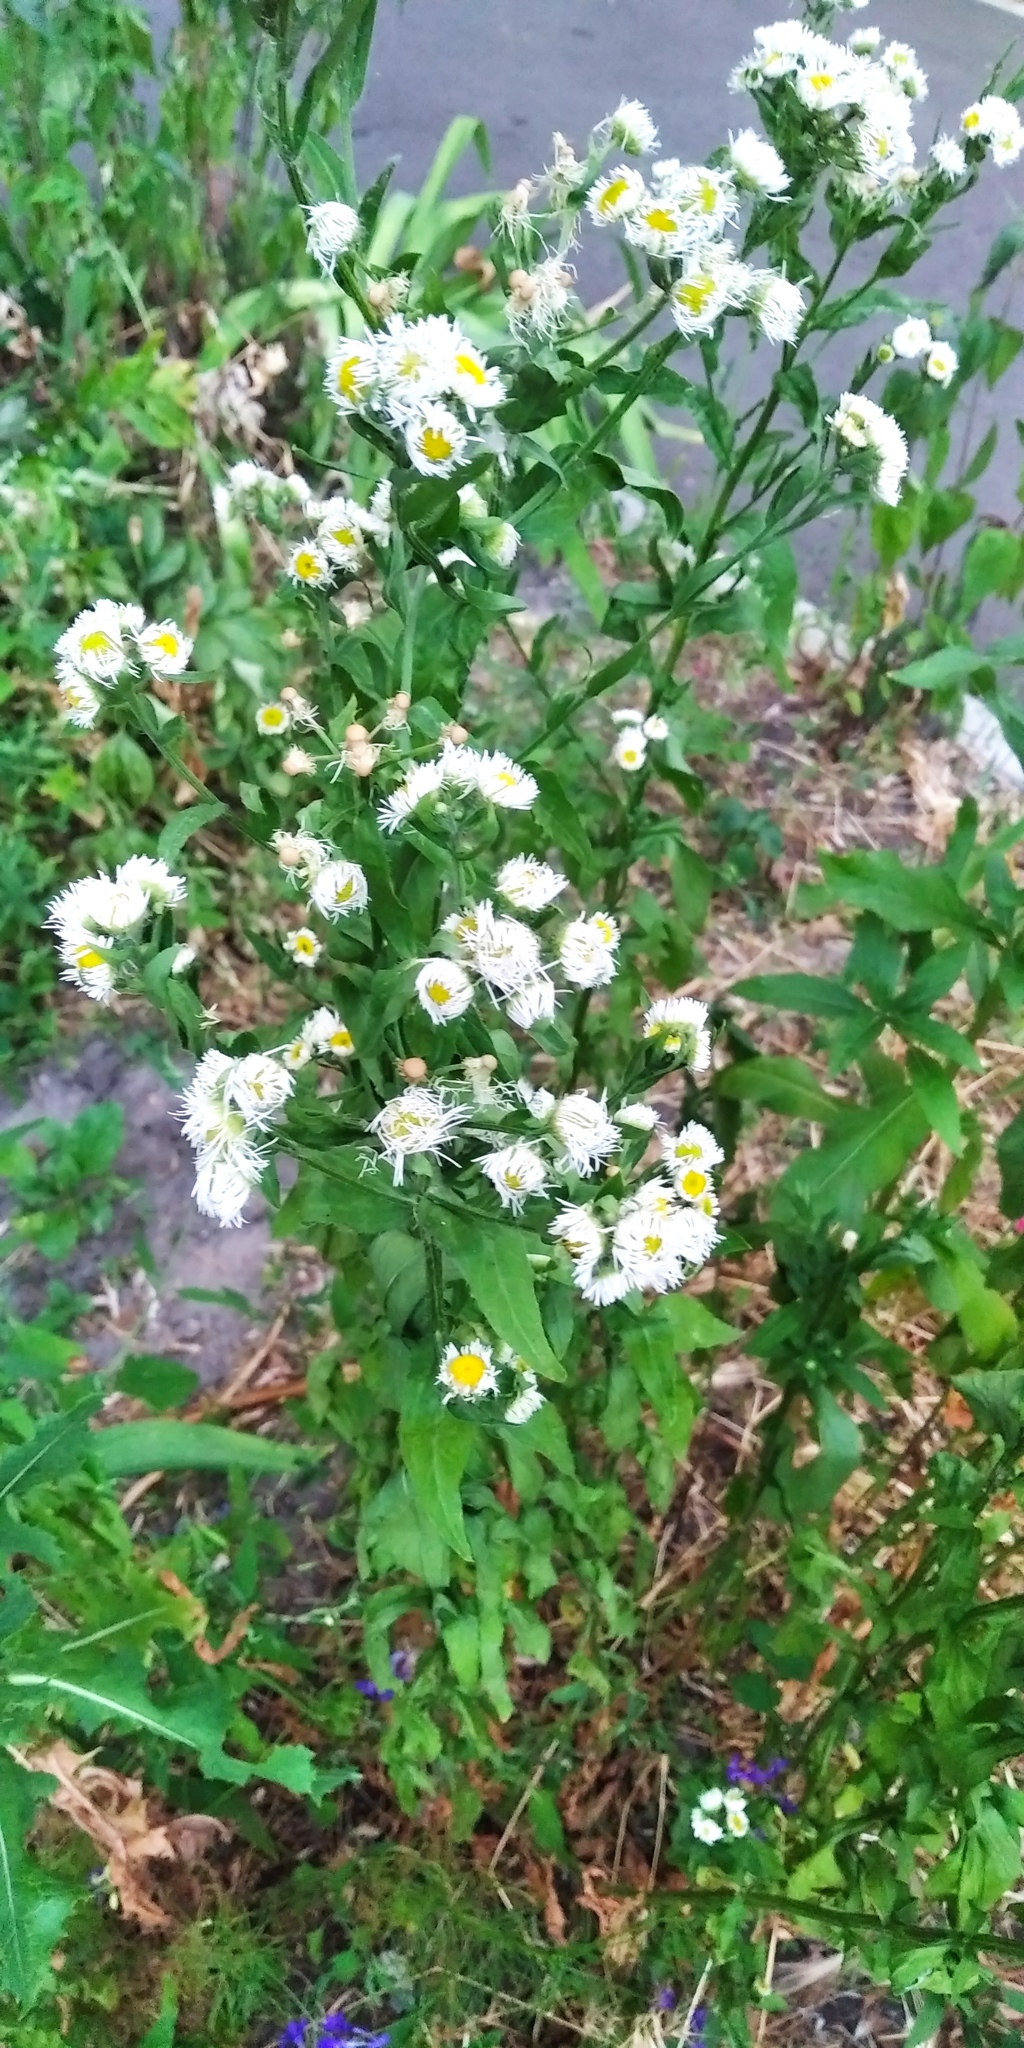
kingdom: Plantae
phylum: Tracheophyta
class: Magnoliopsida
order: Asterales
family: Asteraceae
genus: Erigeron
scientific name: Erigeron annuus
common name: Tall fleabane
